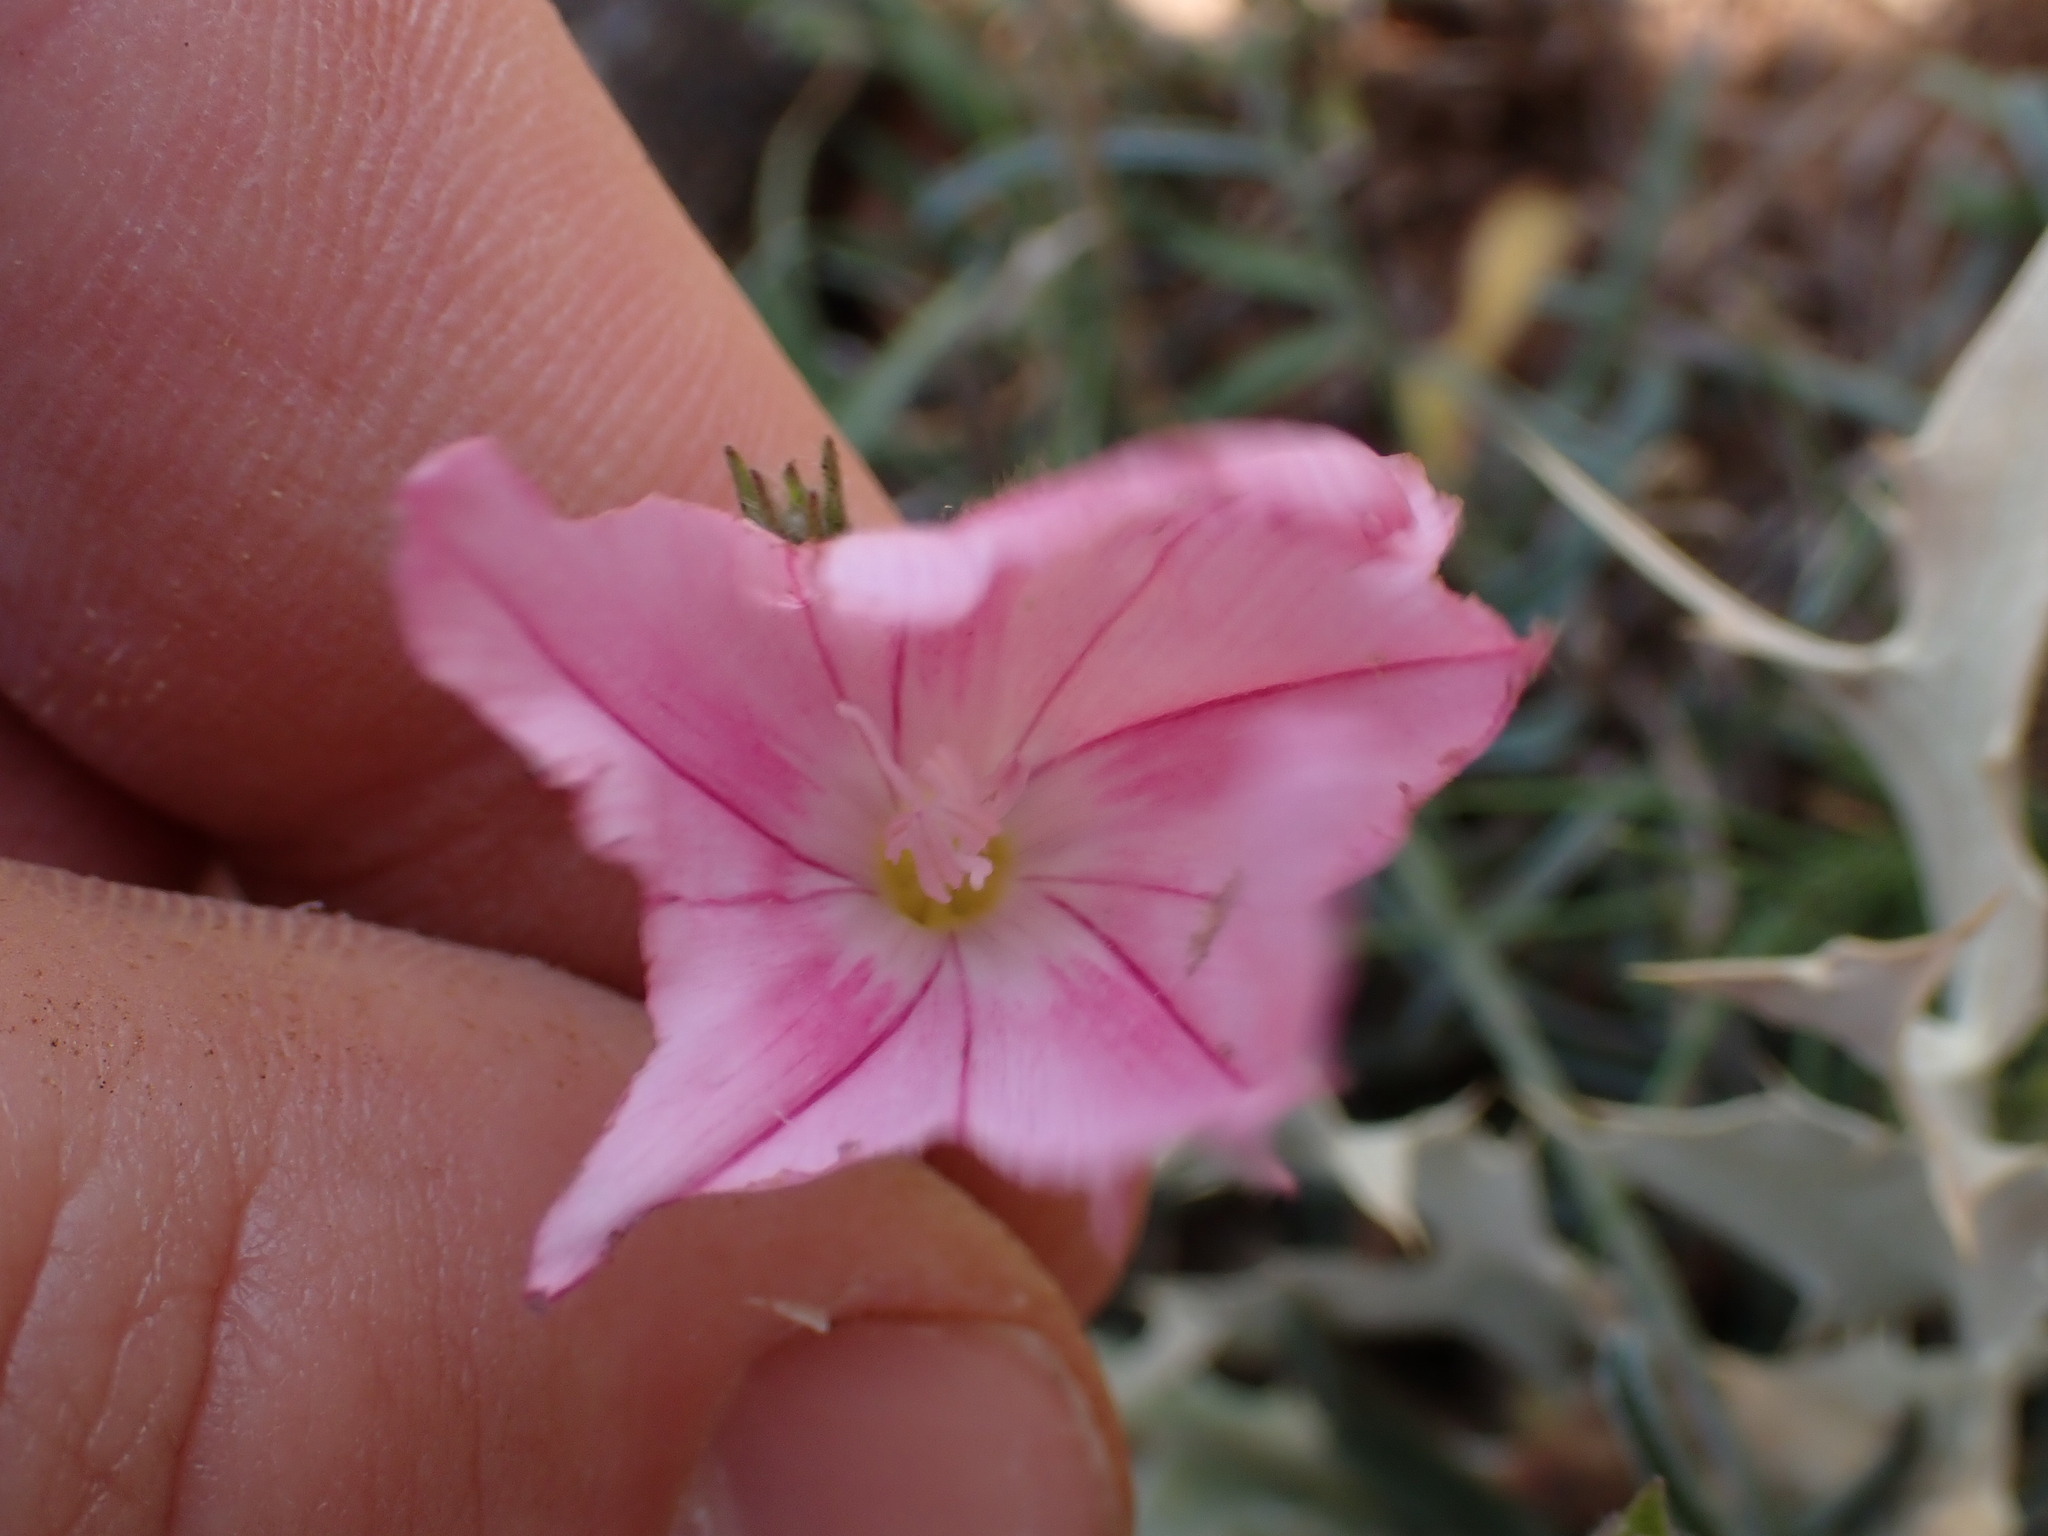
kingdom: Plantae
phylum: Tracheophyta
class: Magnoliopsida
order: Solanales
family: Convolvulaceae
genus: Convolvulus
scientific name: Convolvulus cantabrica
